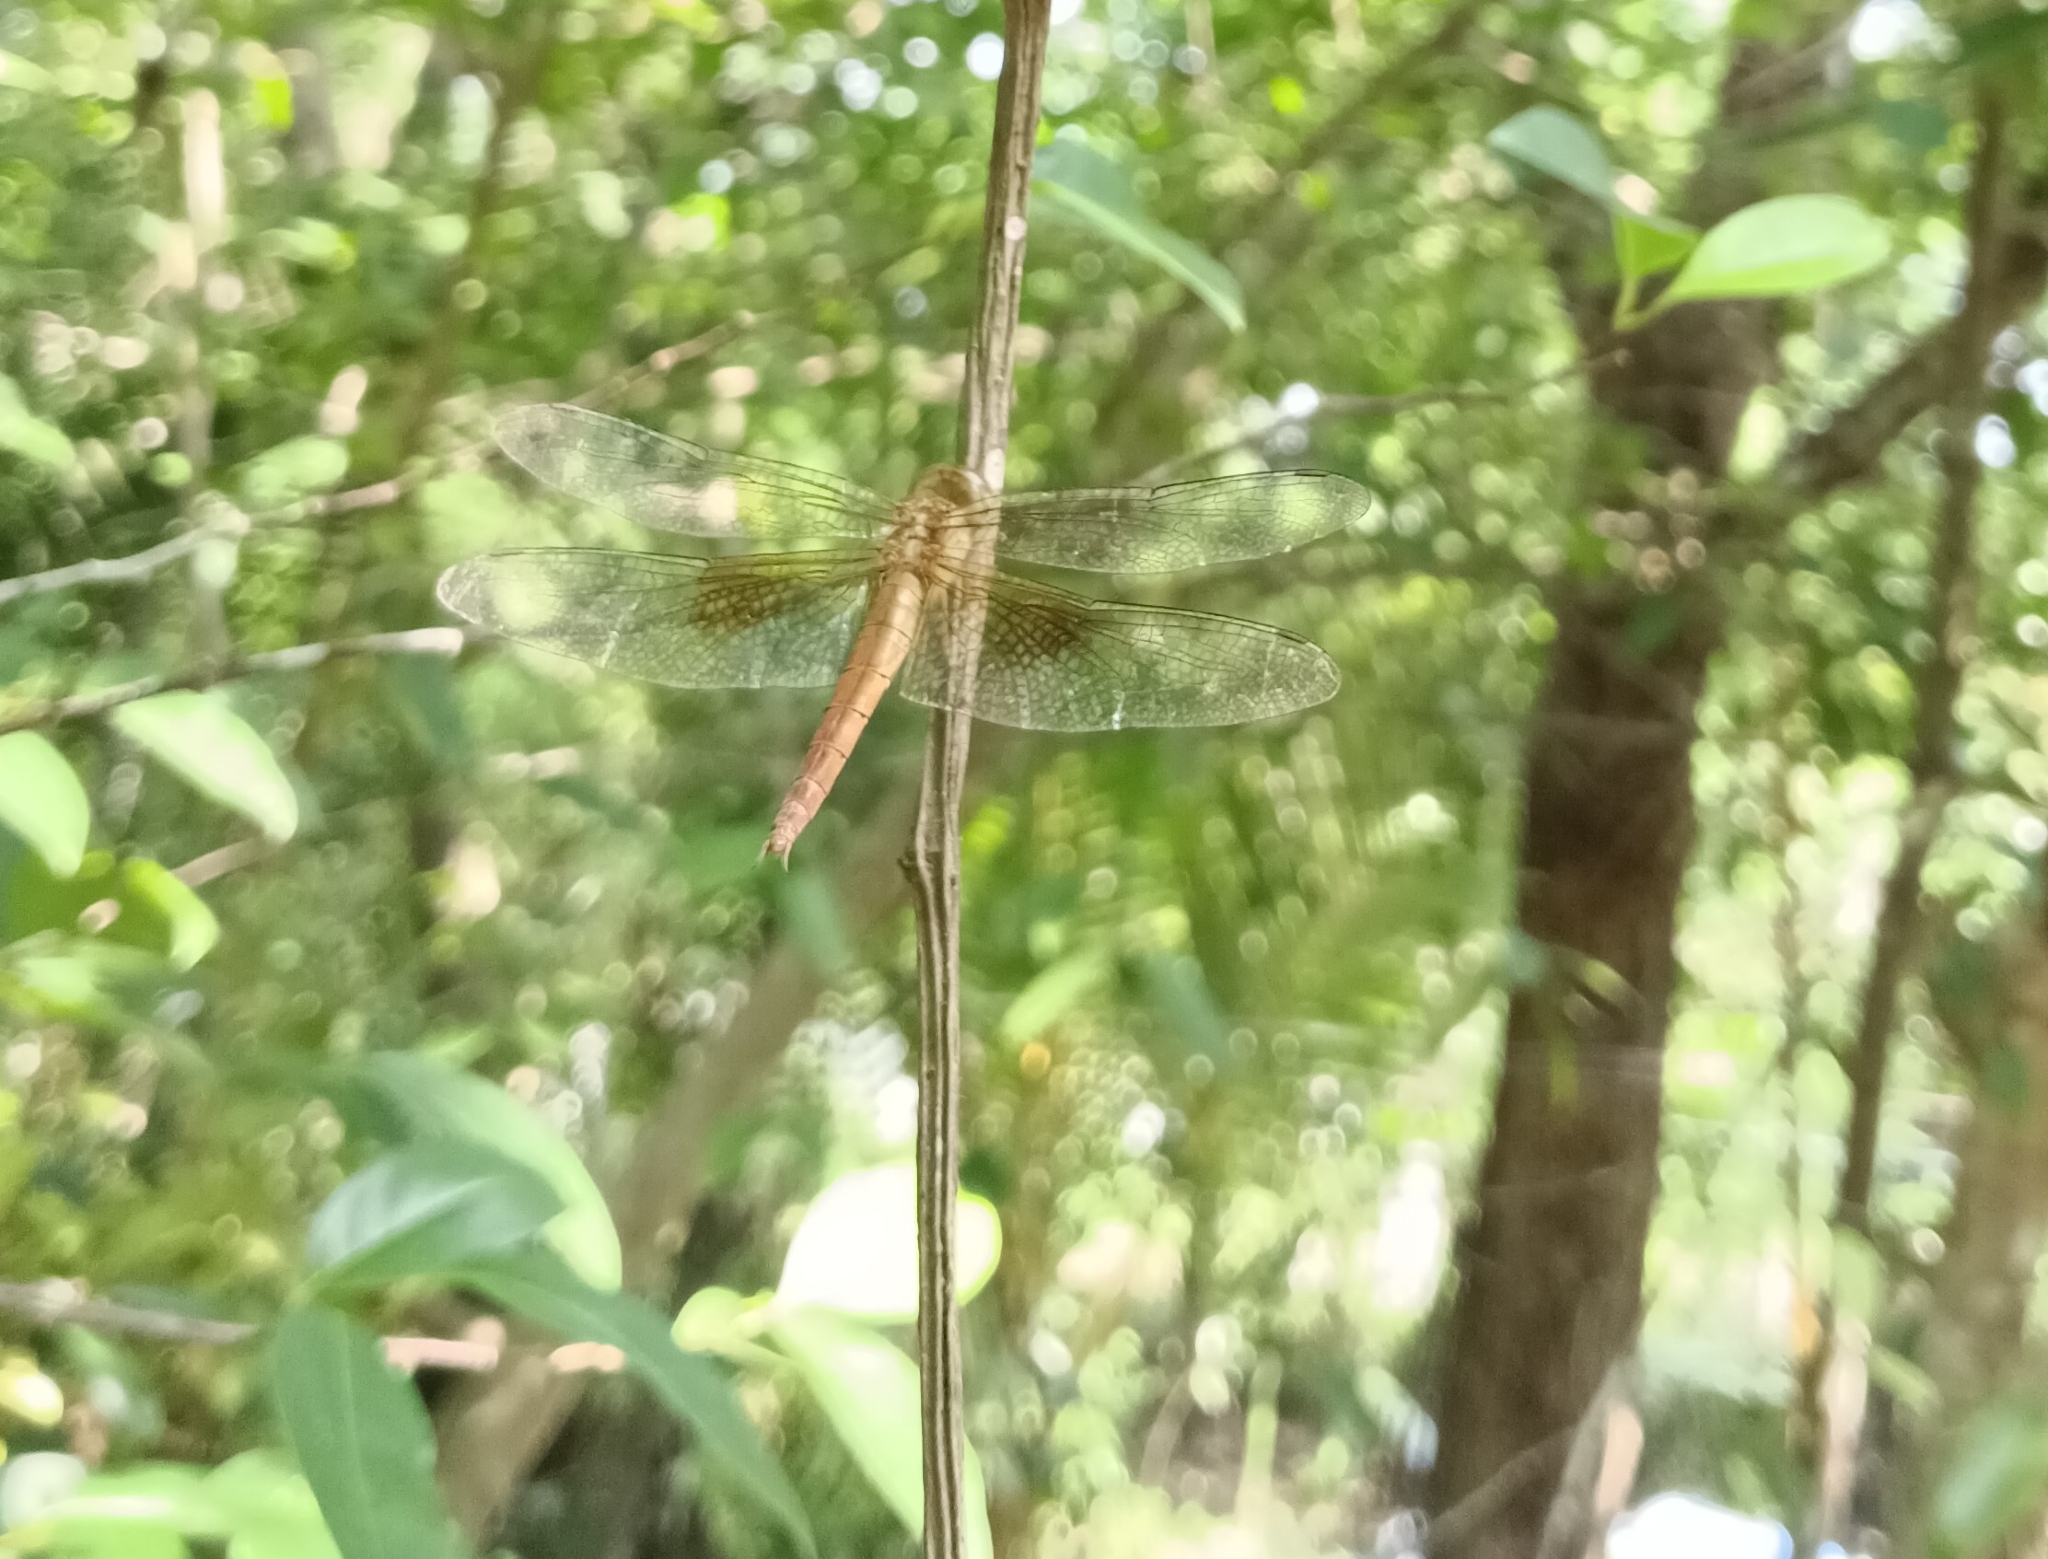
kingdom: Animalia
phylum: Arthropoda
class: Insecta
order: Odonata
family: Libellulidae
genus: Tholymis
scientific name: Tholymis tillarga
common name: Coral-tailed cloud wing
